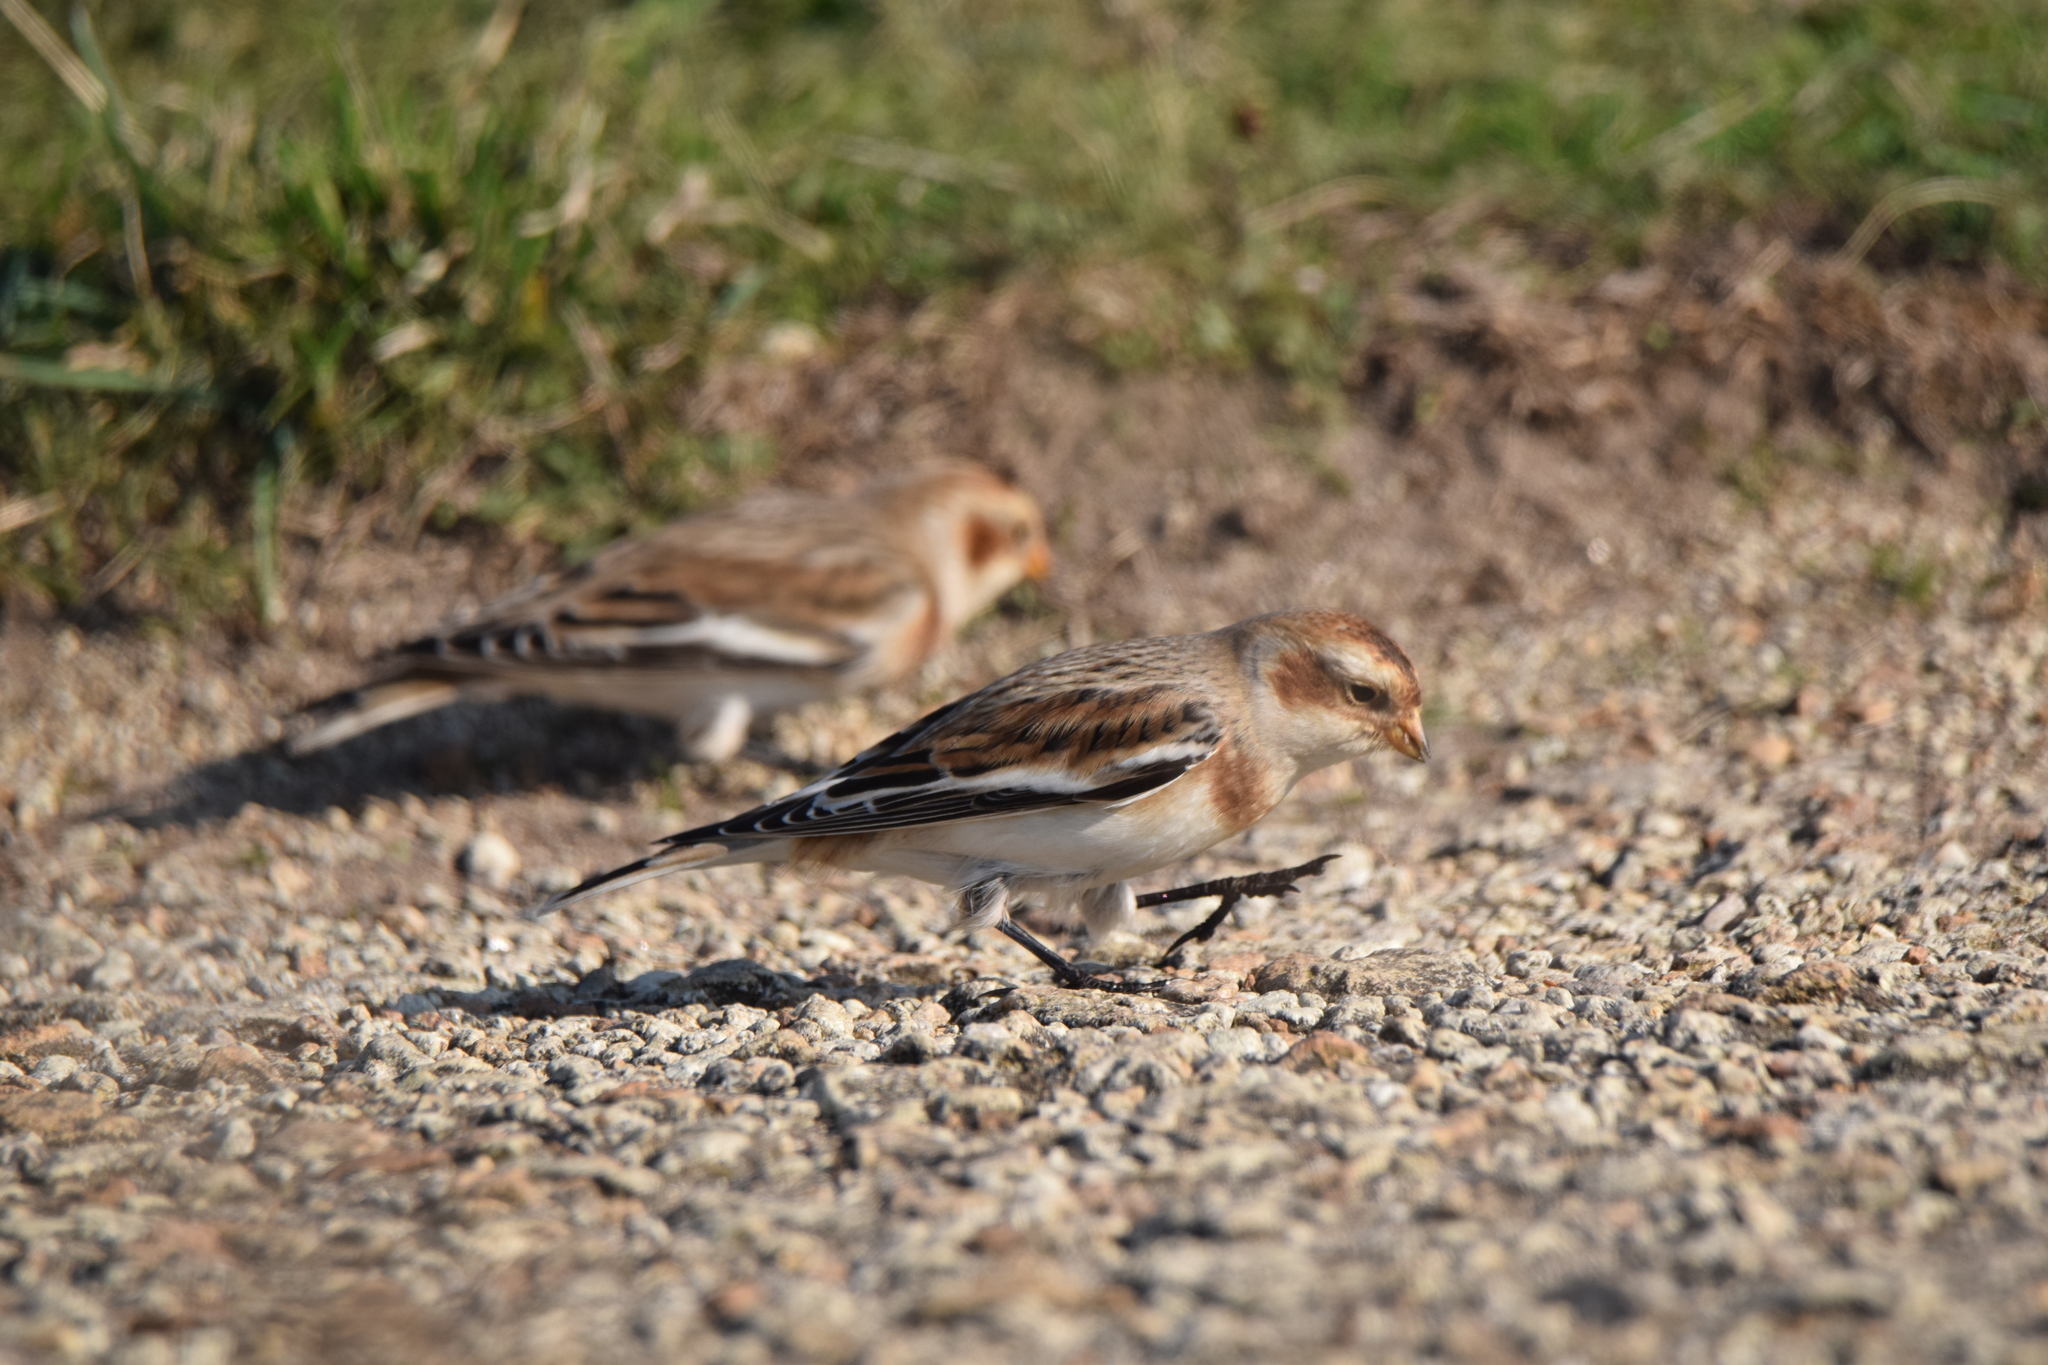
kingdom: Animalia
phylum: Chordata
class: Aves
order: Passeriformes
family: Calcariidae
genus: Plectrophenax
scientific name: Plectrophenax nivalis
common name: Snow bunting
